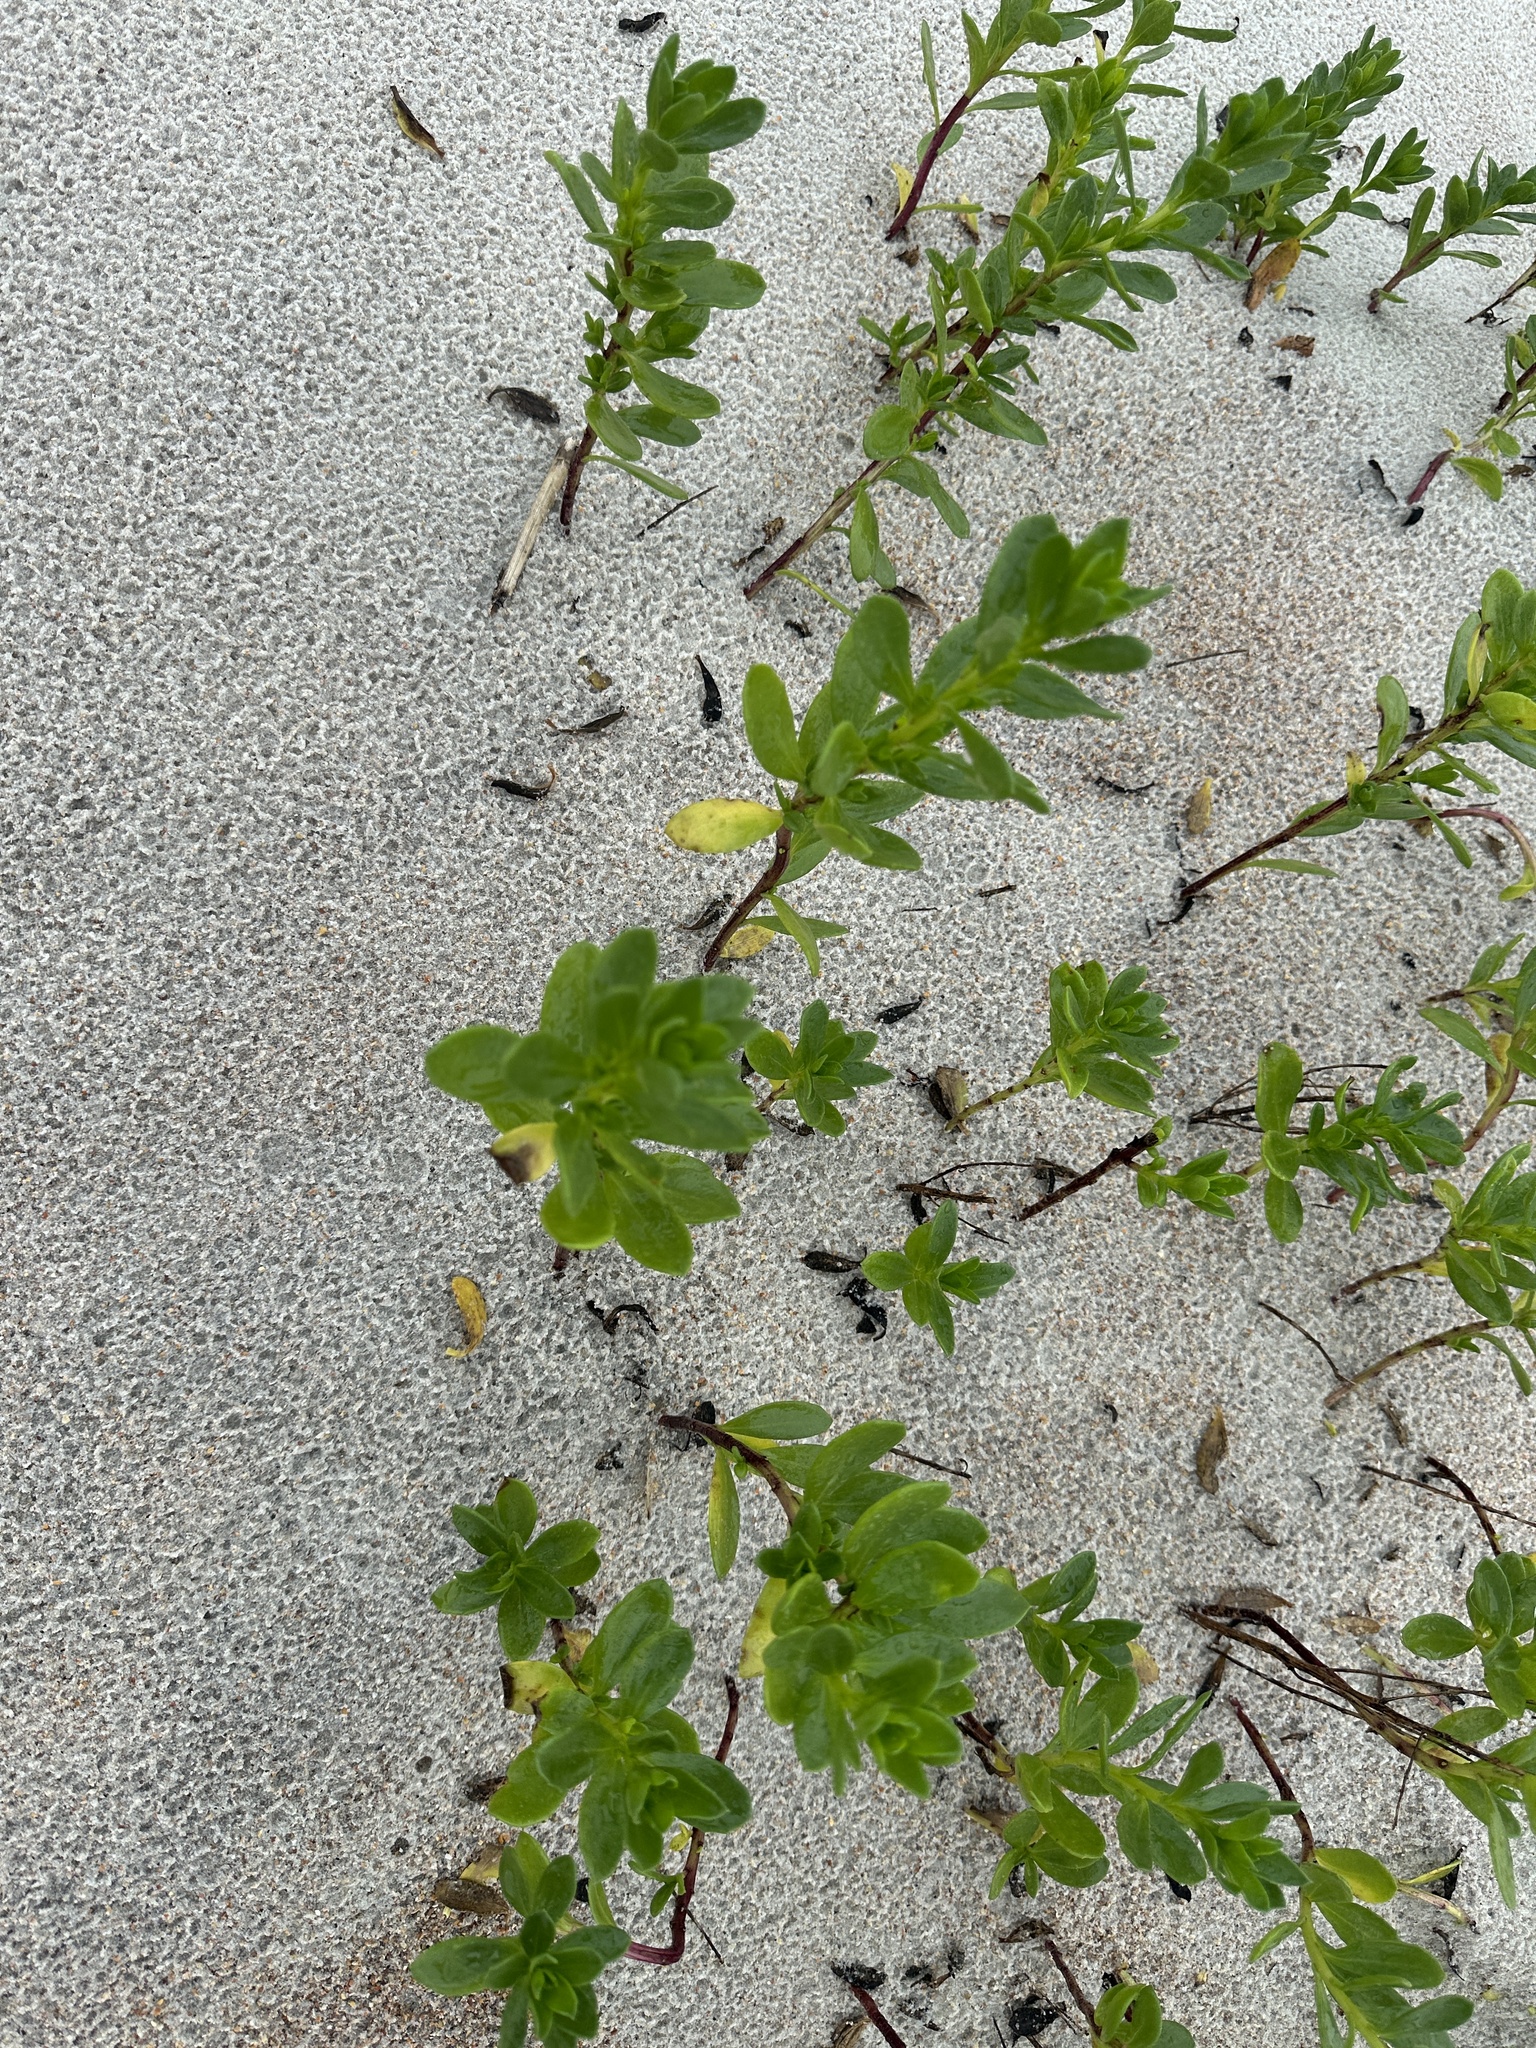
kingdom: Plantae
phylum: Tracheophyta
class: Magnoliopsida
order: Asterales
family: Asteraceae
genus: Iva
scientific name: Iva imbricata
